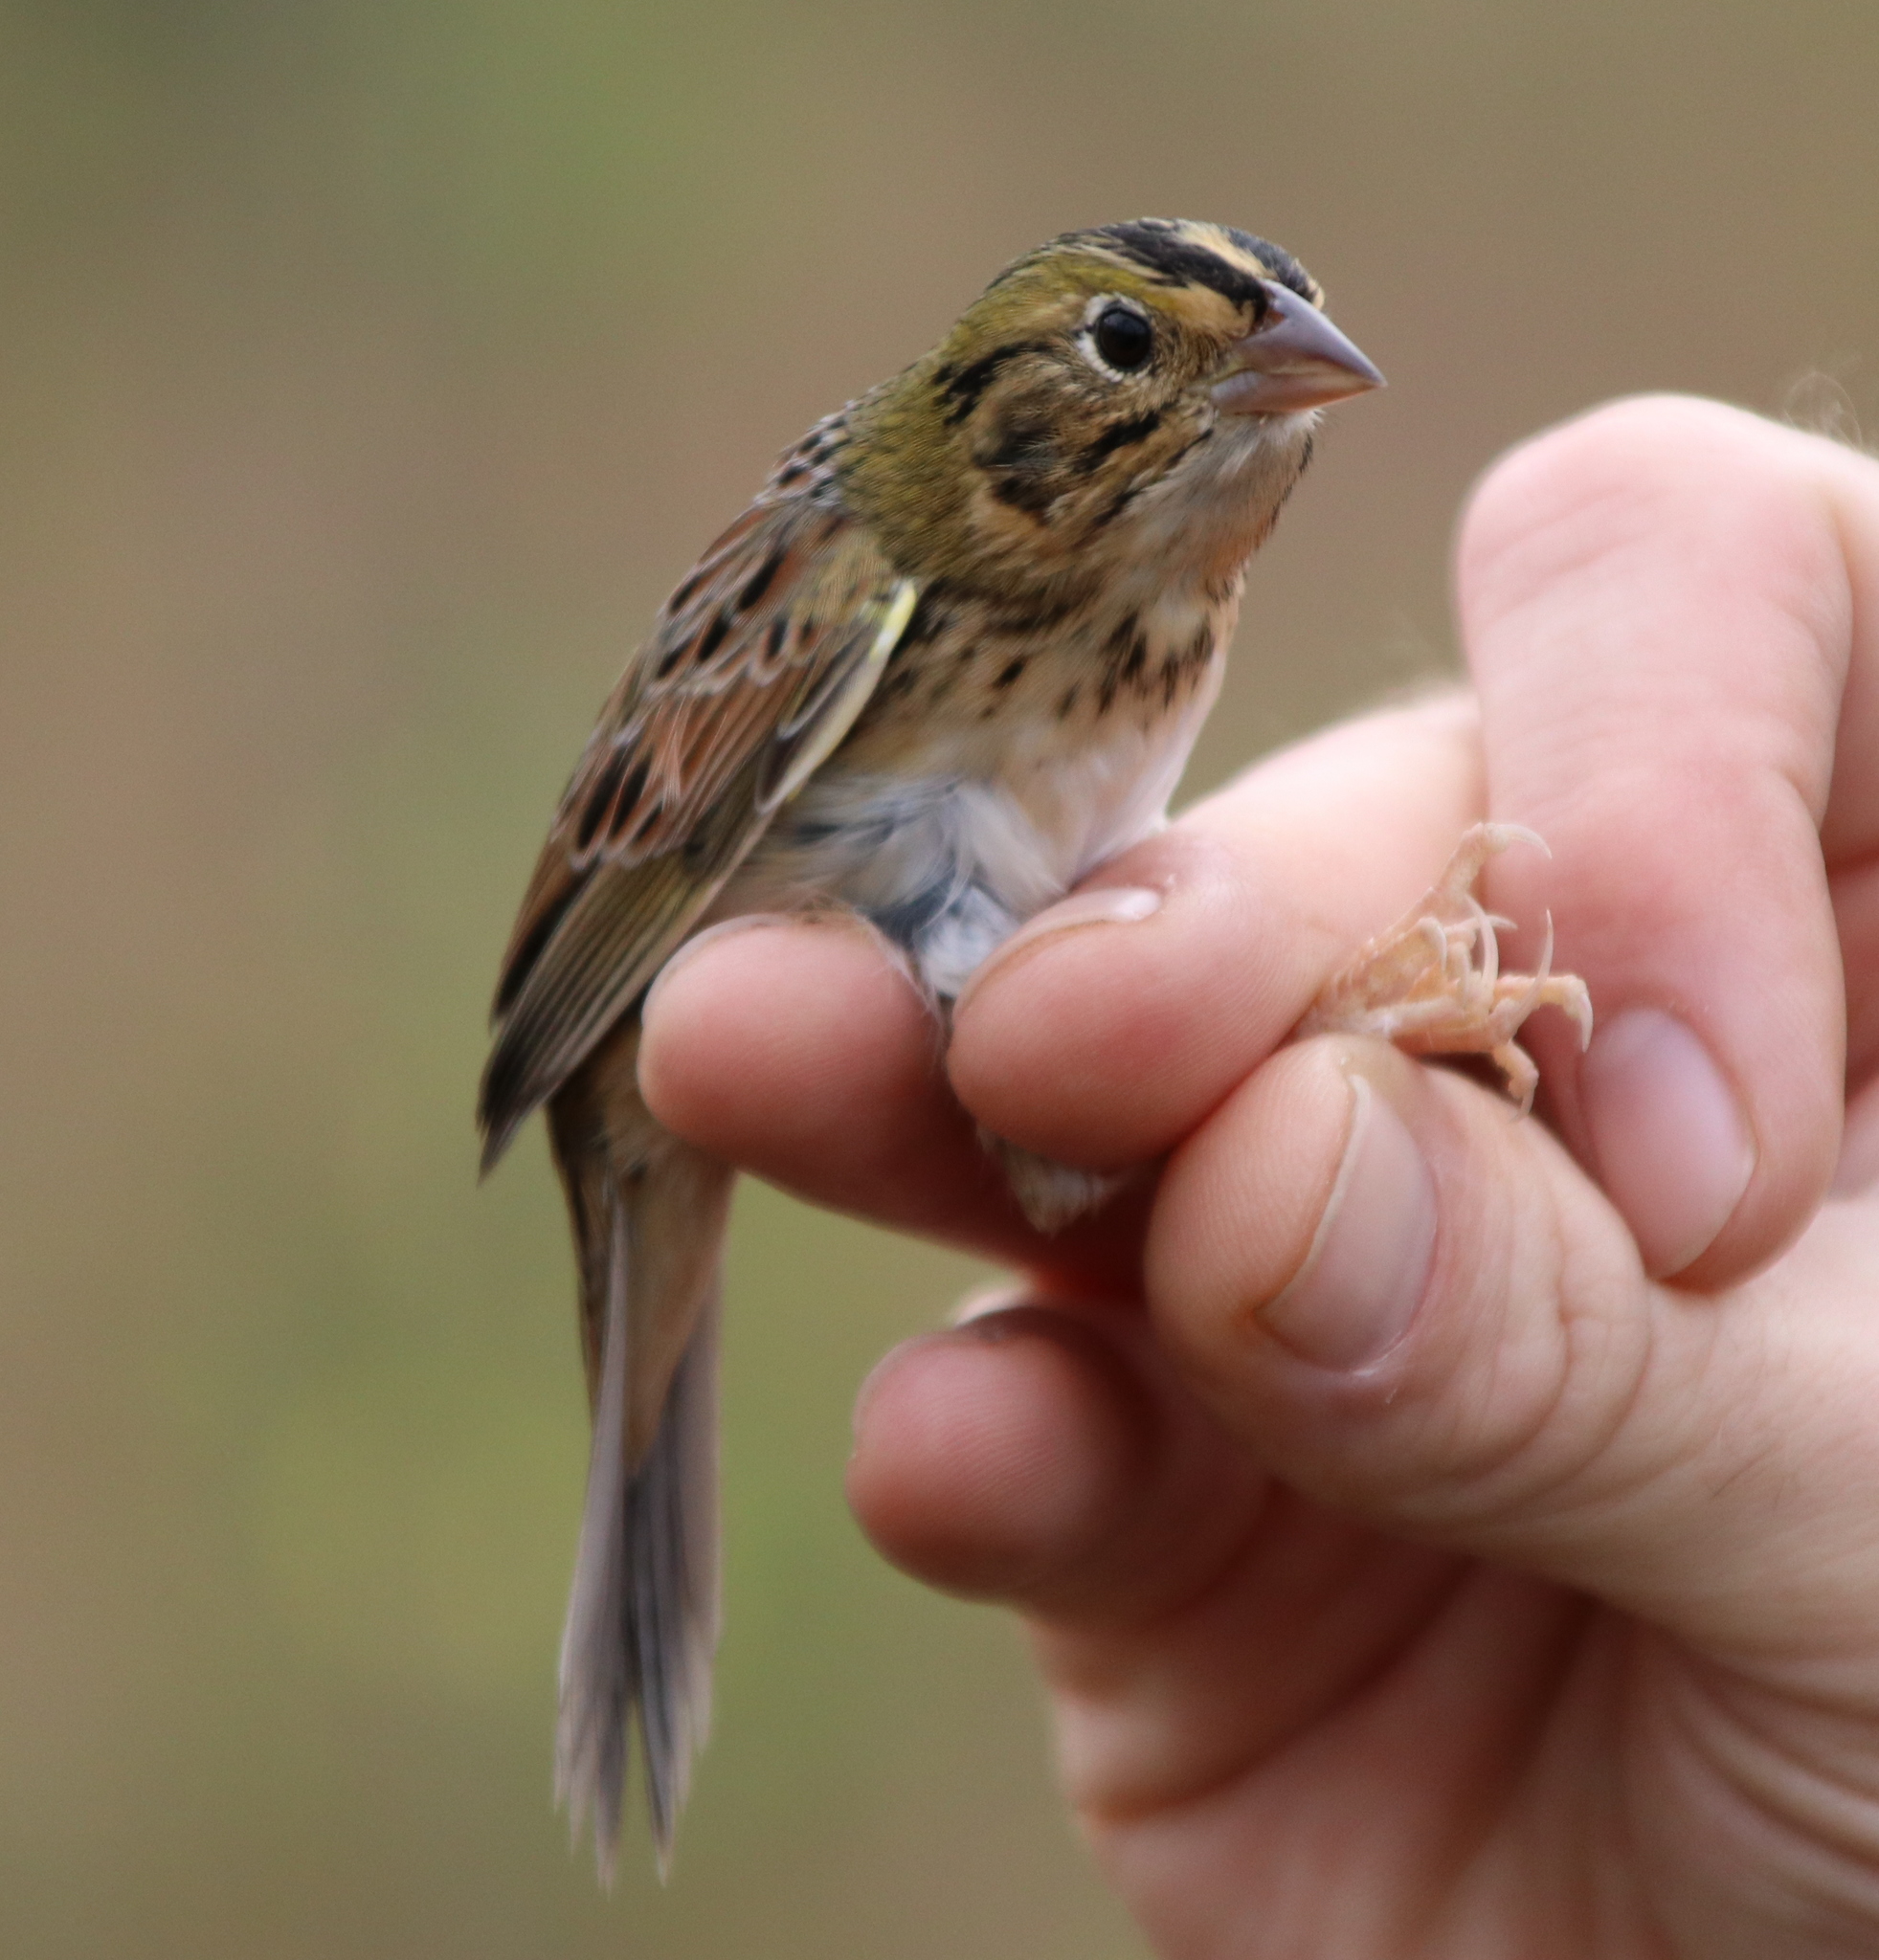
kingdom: Animalia
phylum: Chordata
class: Aves
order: Passeriformes
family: Passerellidae
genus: Centronyx
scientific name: Centronyx henslowii
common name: Henslow's sparrow
